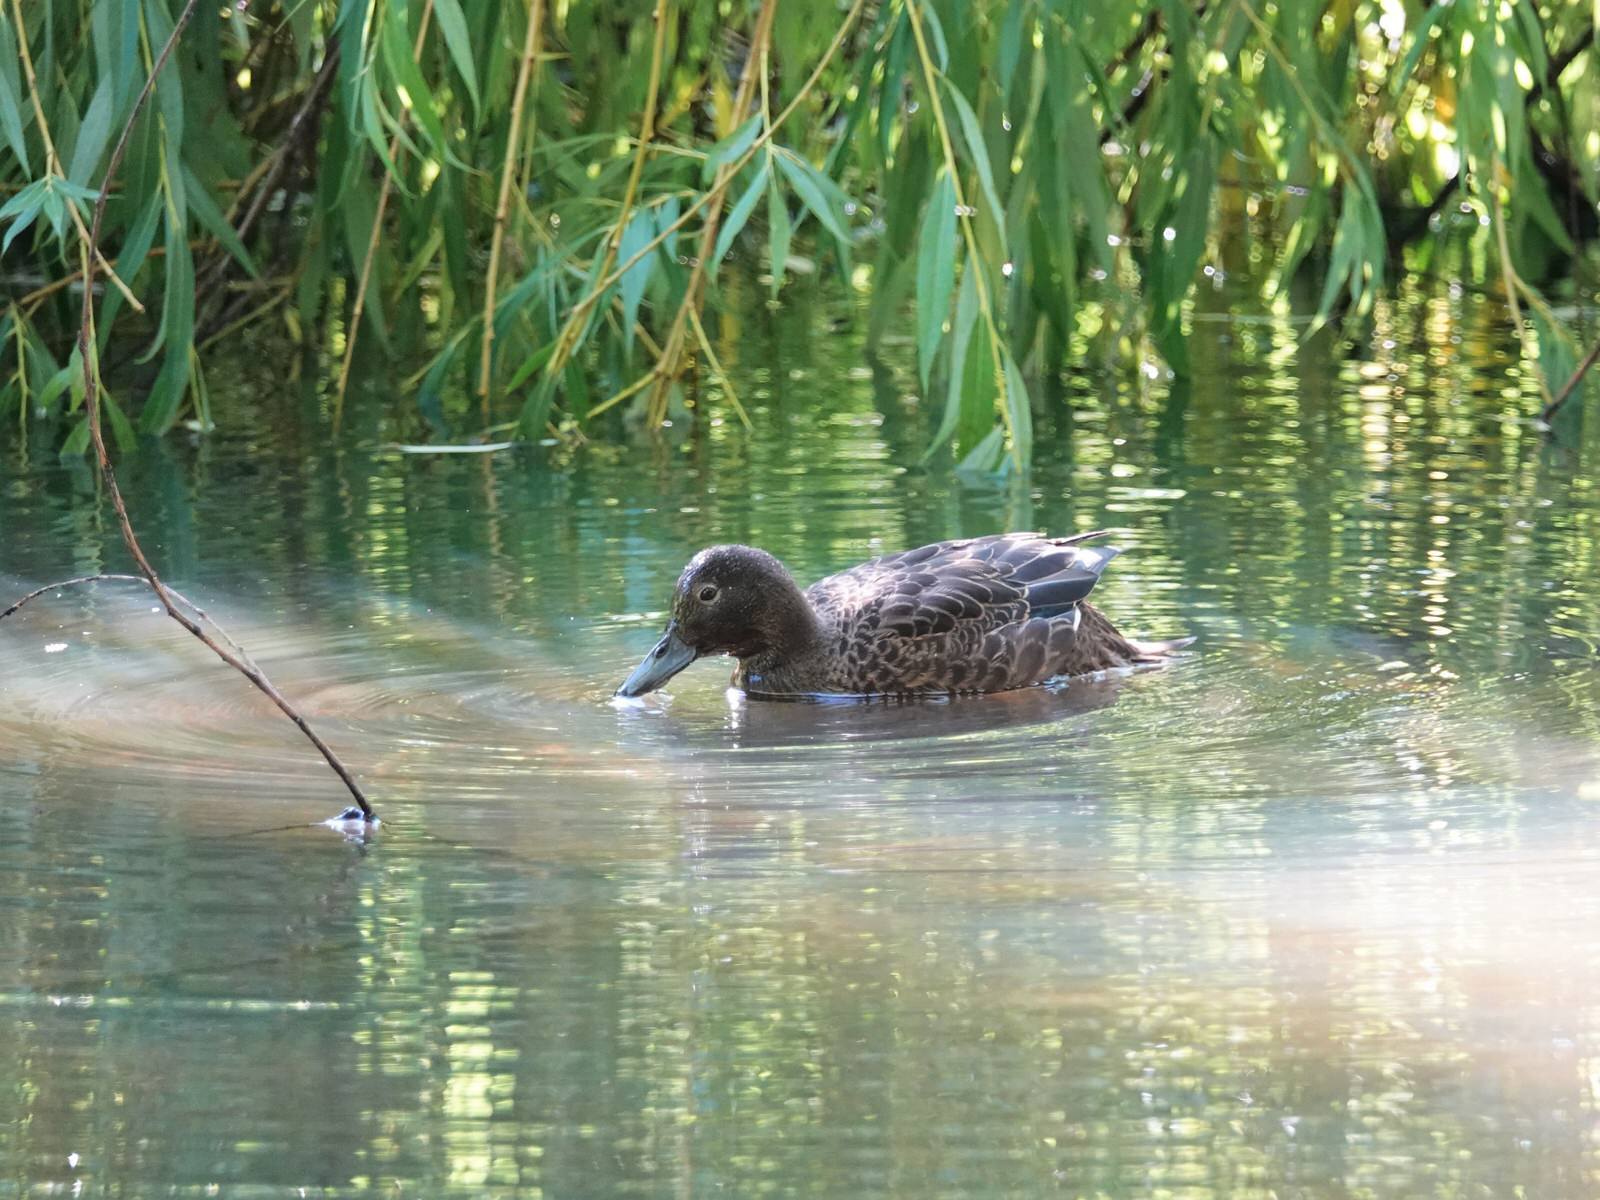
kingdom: Animalia
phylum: Chordata
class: Aves
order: Anseriformes
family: Anatidae
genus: Anas
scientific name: Anas chlorotis
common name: Brown teal
